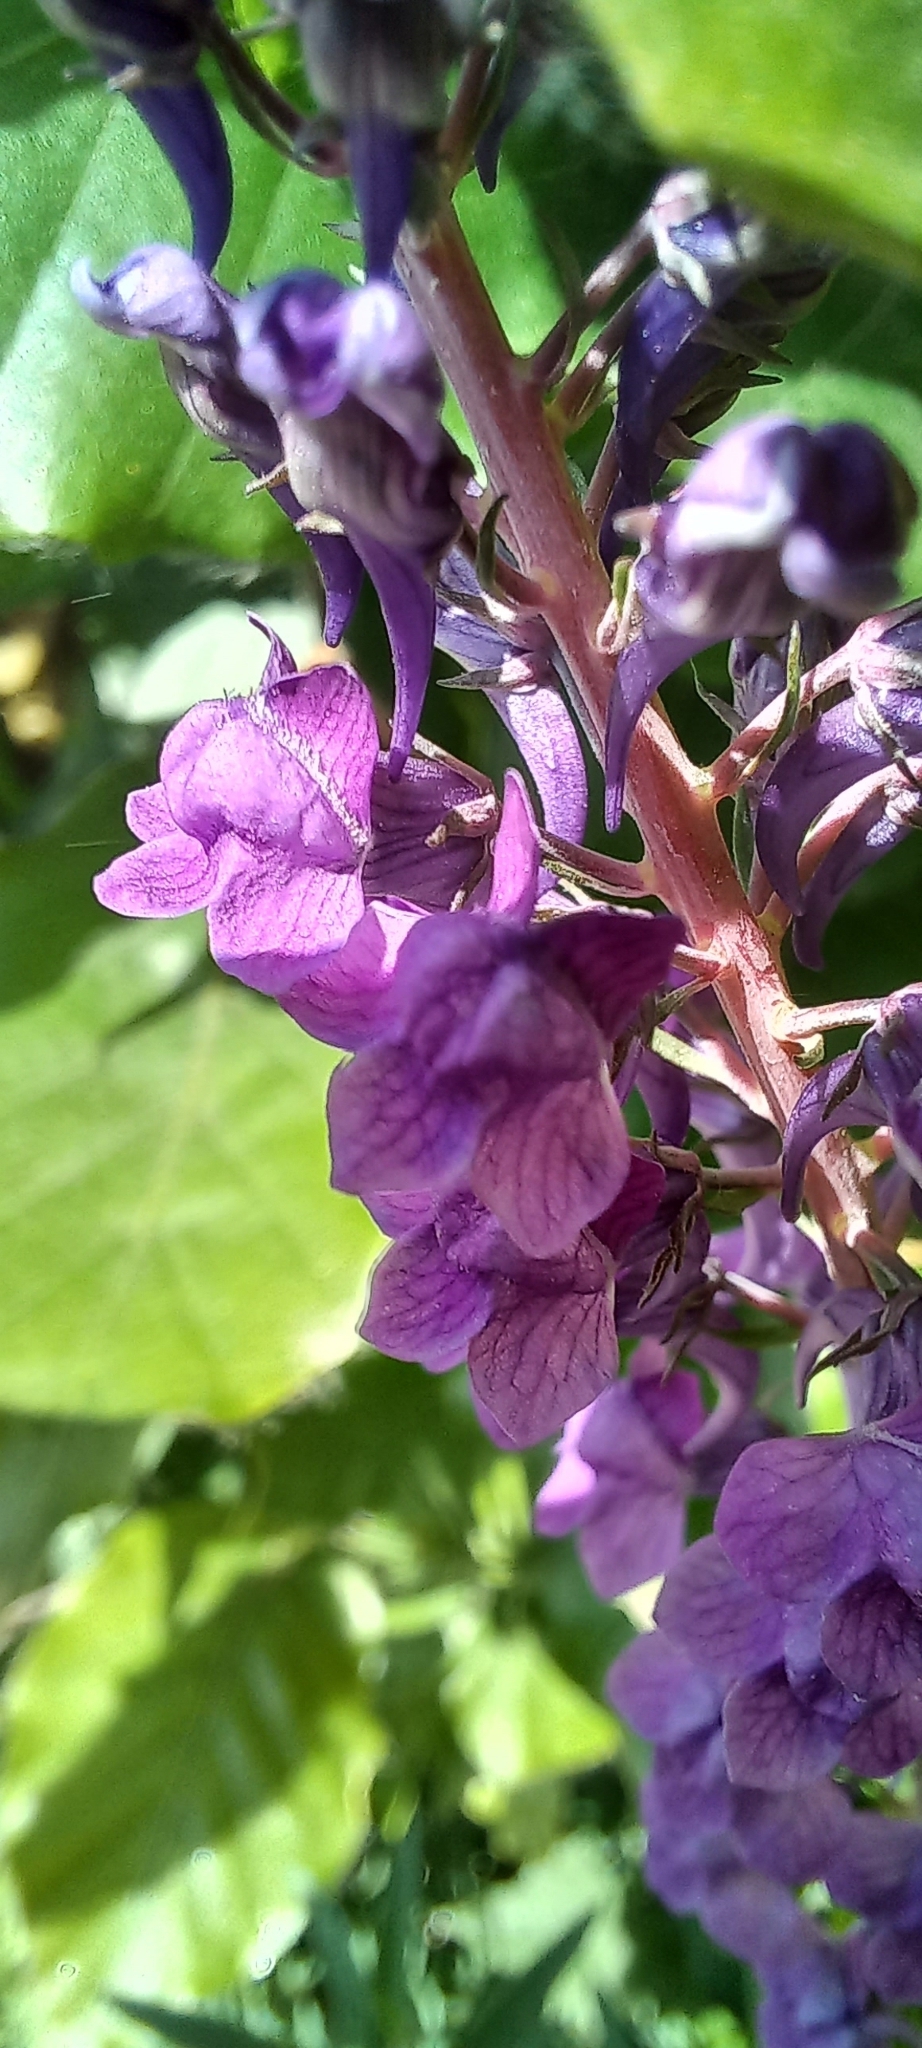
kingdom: Plantae
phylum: Tracheophyta
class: Magnoliopsida
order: Lamiales
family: Plantaginaceae
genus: Linaria
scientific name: Linaria purpurea
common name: Purple toadflax
